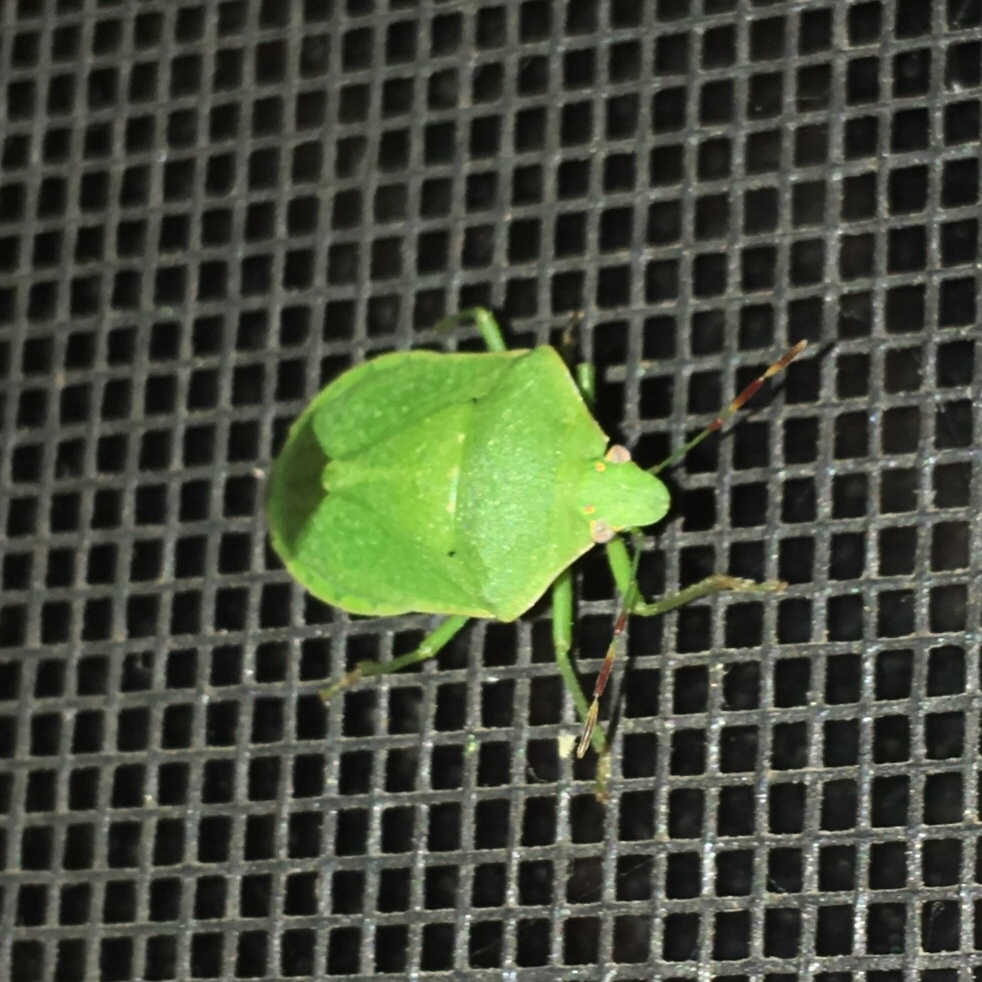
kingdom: Animalia
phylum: Arthropoda
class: Insecta
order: Hemiptera
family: Pentatomidae
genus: Nezara
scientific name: Nezara viridula
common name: Southern green stink bug
